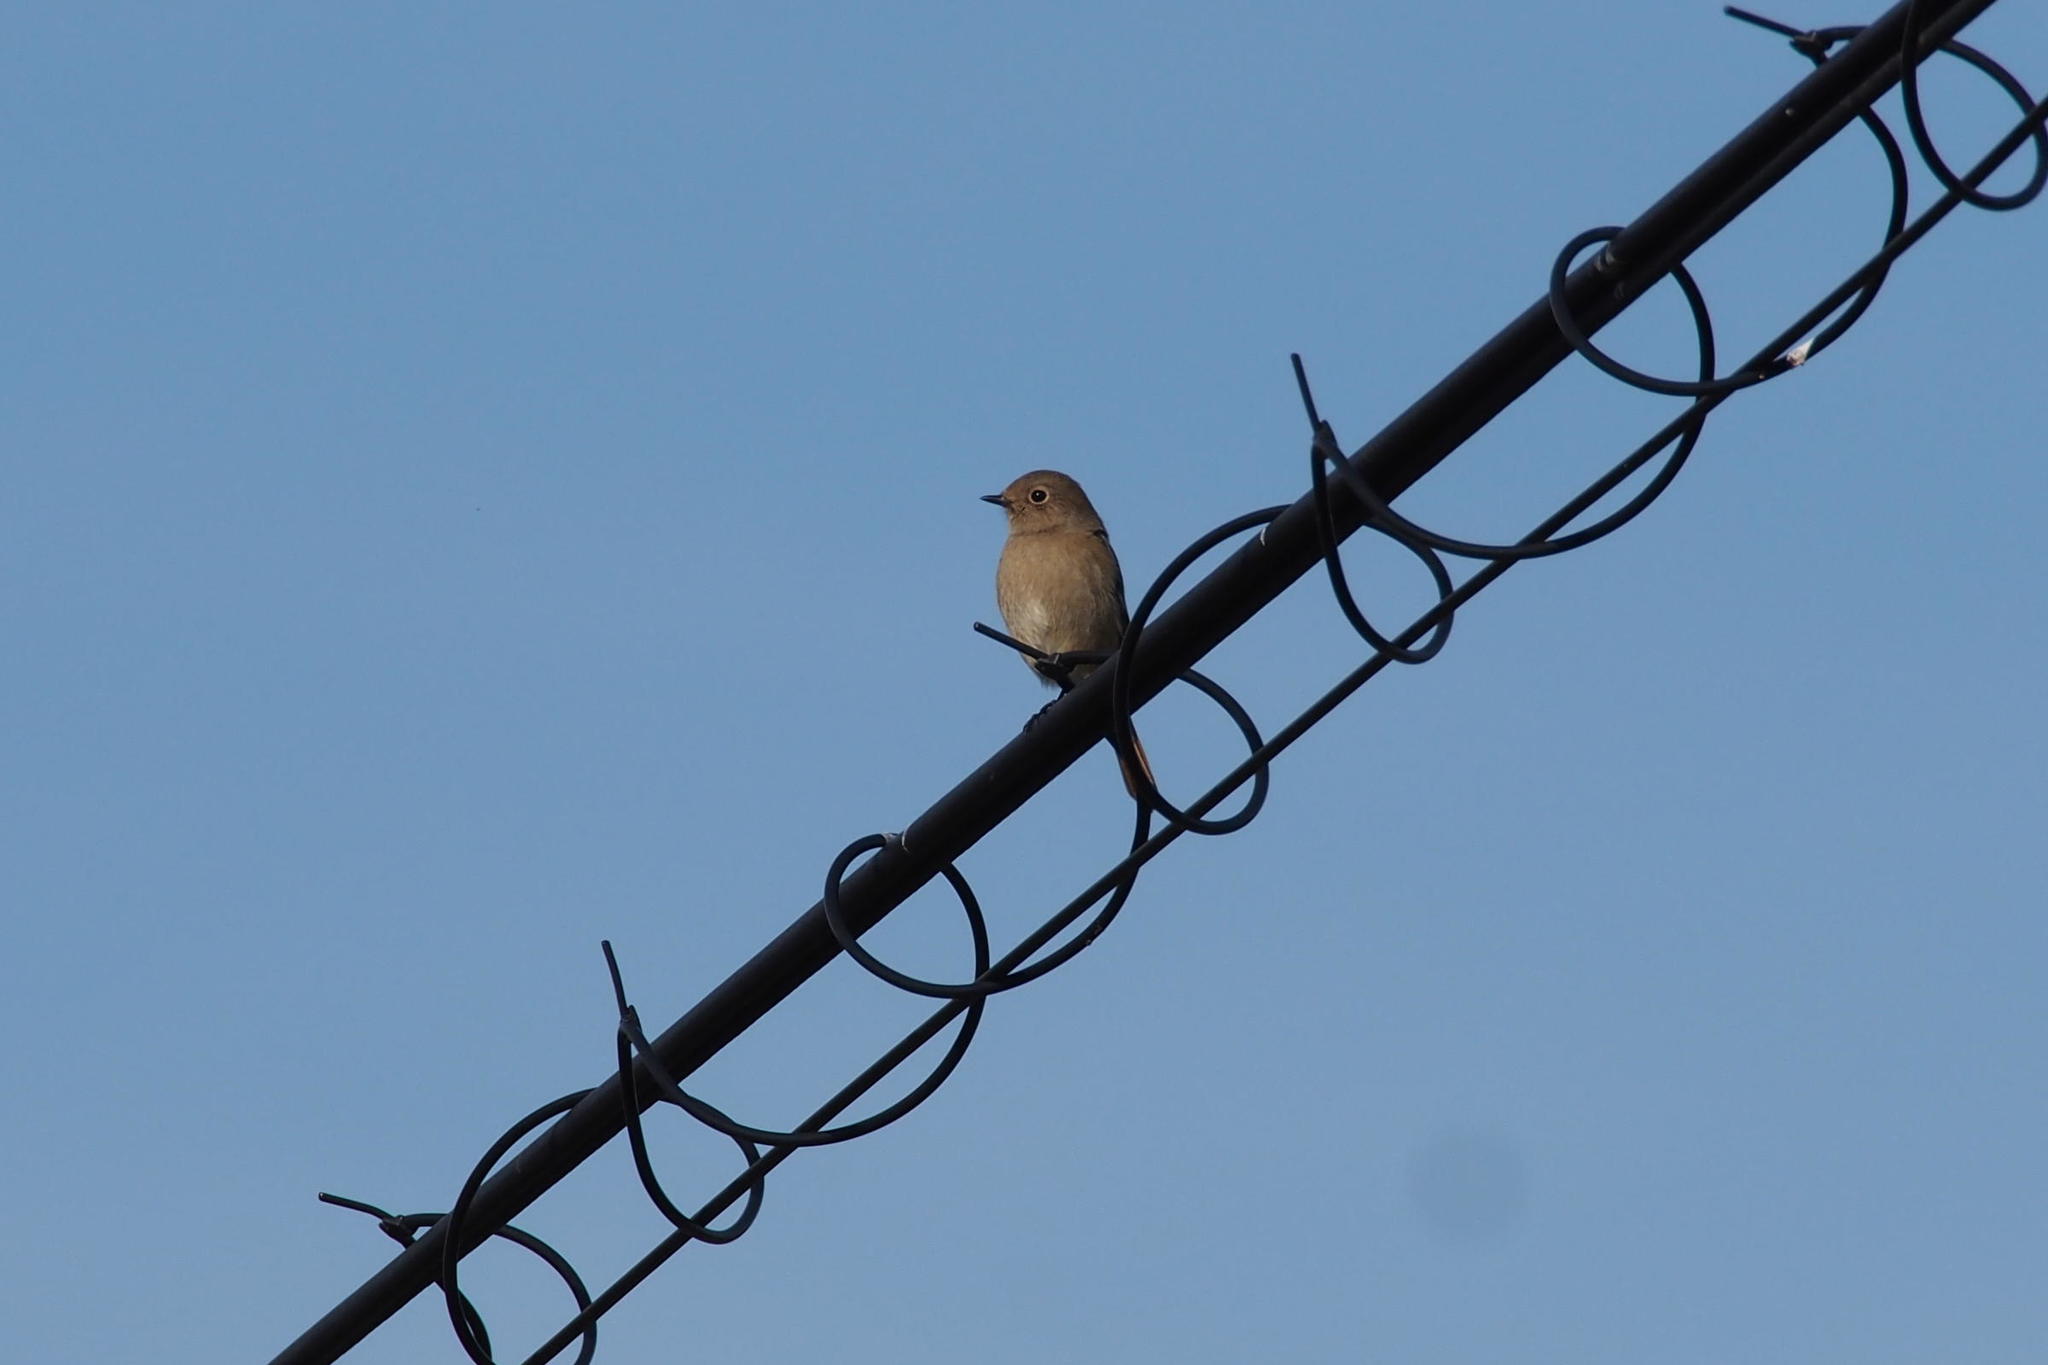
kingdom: Animalia
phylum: Chordata
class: Aves
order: Passeriformes
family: Muscicapidae
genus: Phoenicurus
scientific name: Phoenicurus auroreus
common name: Daurian redstart
